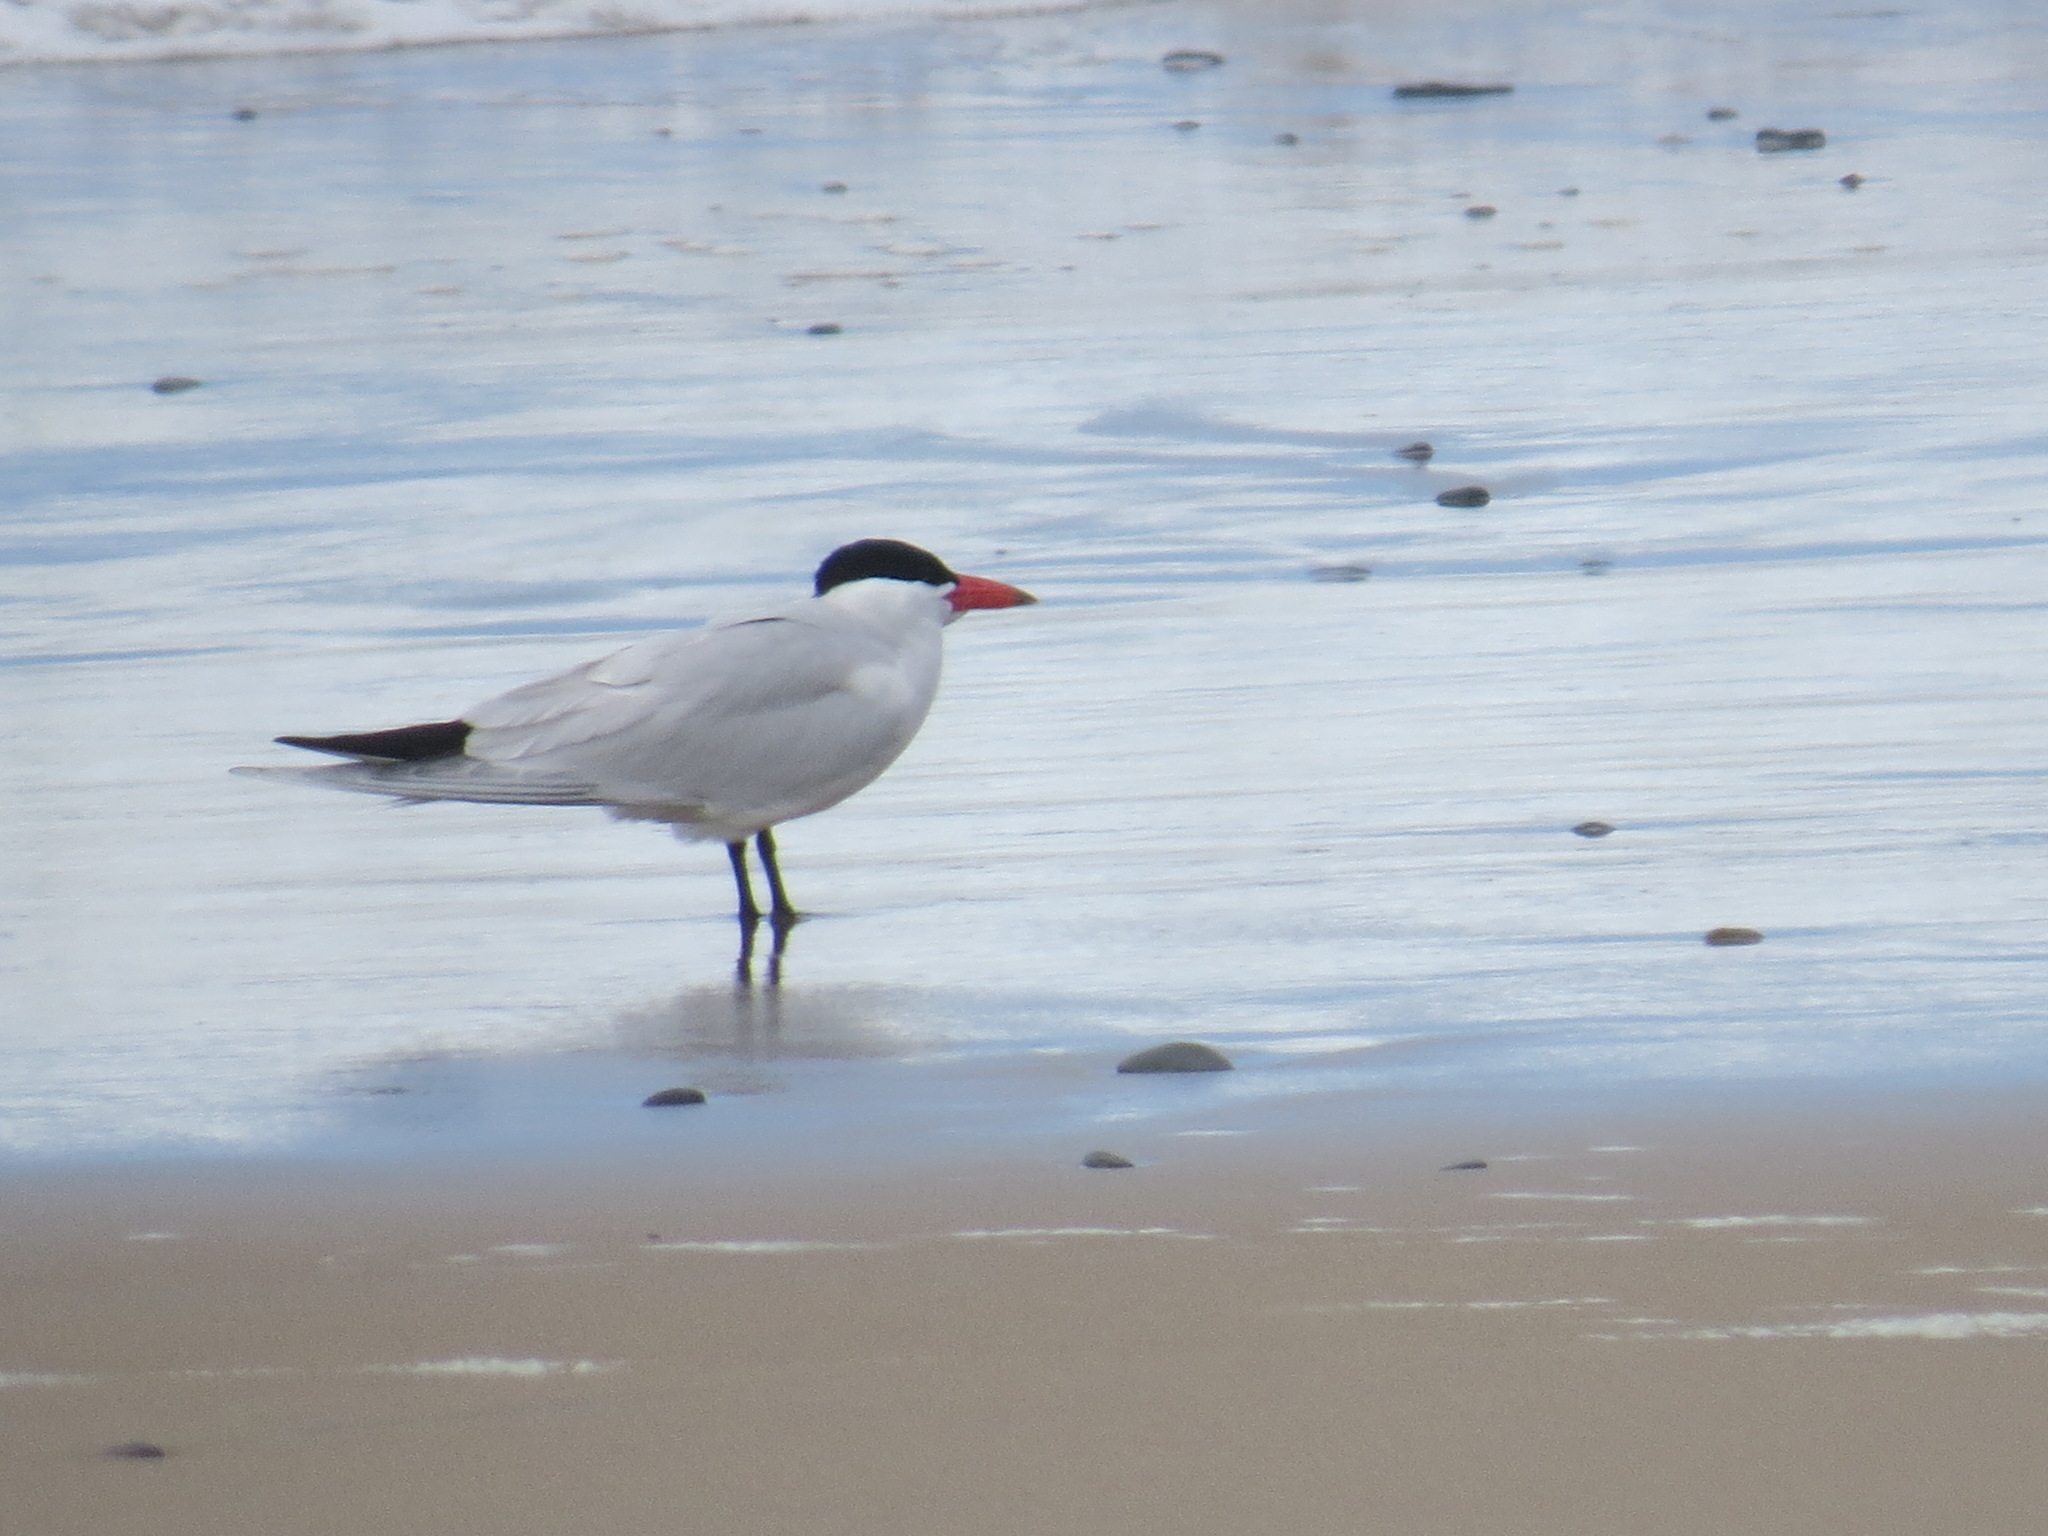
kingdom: Animalia
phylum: Chordata
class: Aves
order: Charadriiformes
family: Laridae
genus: Hydroprogne
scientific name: Hydroprogne caspia
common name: Caspian tern
